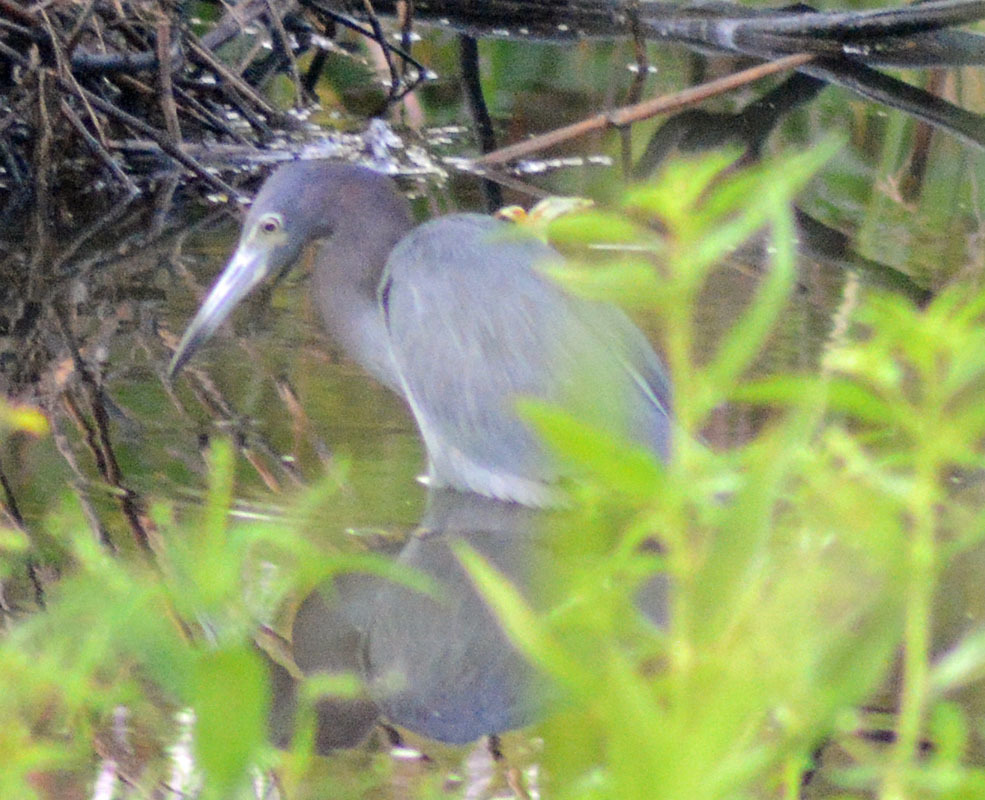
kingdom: Animalia
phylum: Chordata
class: Aves
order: Pelecaniformes
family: Ardeidae
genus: Egretta
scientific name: Egretta caerulea
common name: Little blue heron
